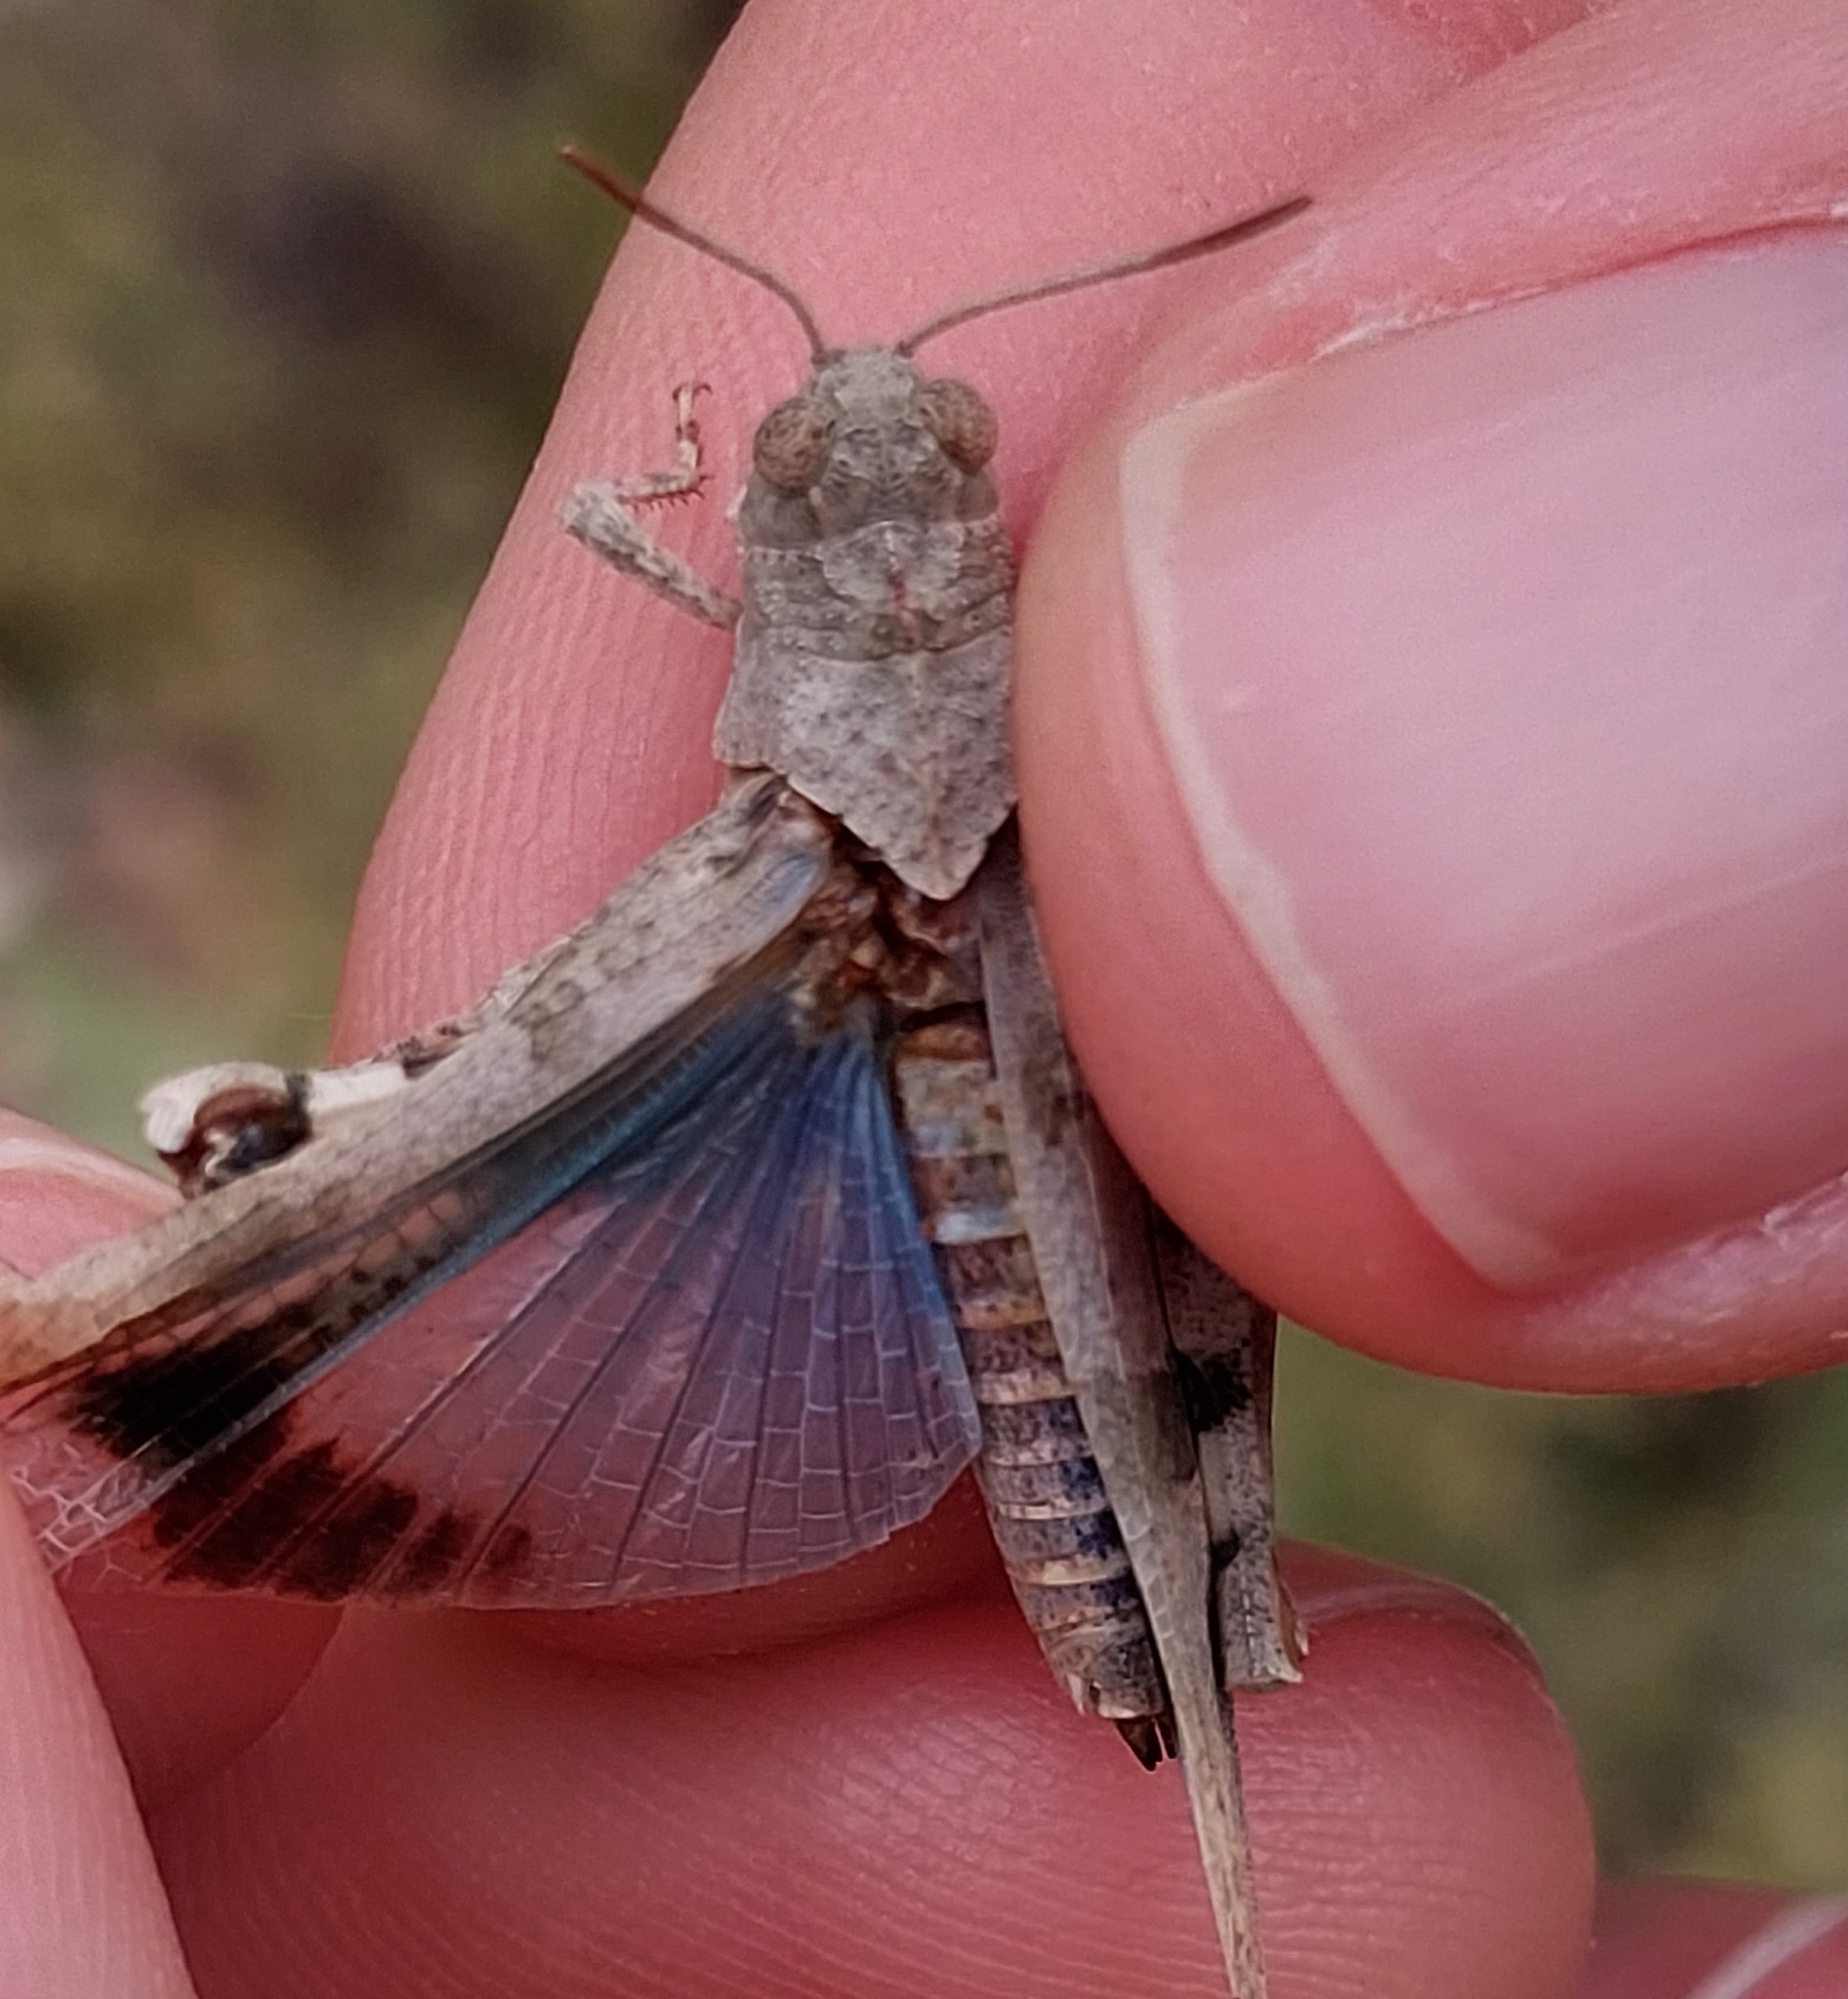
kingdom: Animalia
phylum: Arthropoda
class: Insecta
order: Orthoptera
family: Acrididae
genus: Oedipoda
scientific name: Oedipoda caerulescens
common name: Blue-winged grasshopper
